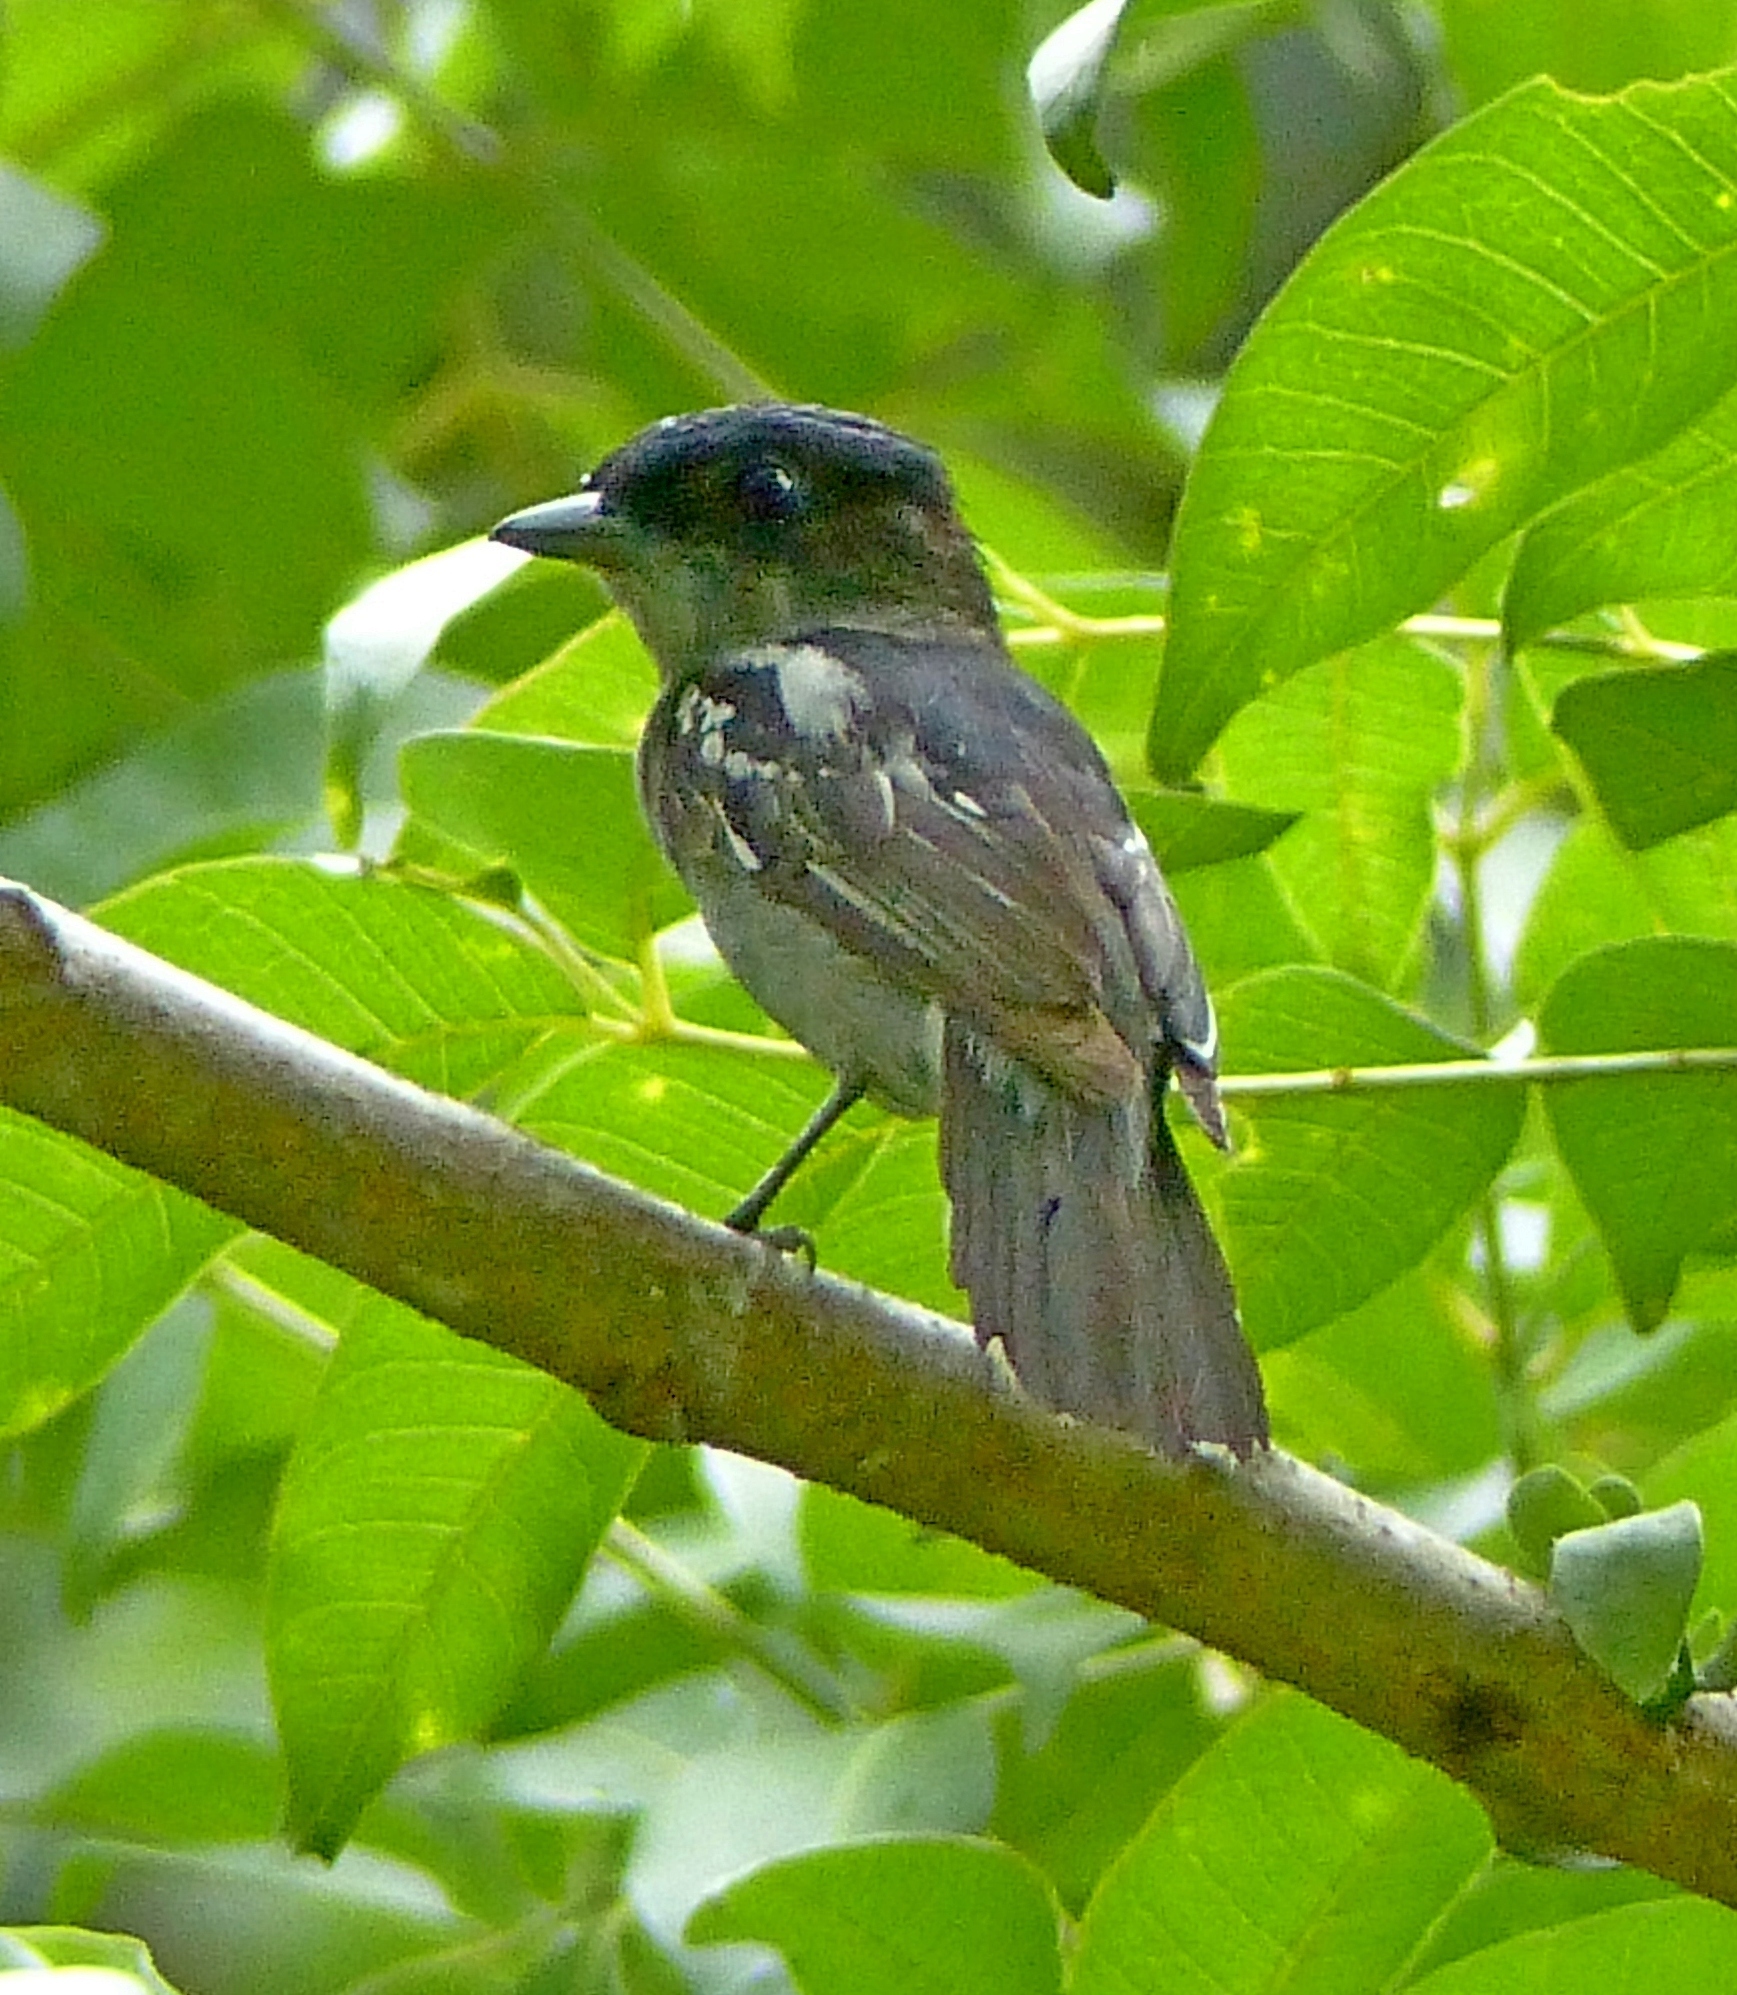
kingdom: Animalia
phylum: Chordata
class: Aves
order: Passeriformes
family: Cotingidae
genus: Pachyramphus
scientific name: Pachyramphus polychopterus
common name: White-winged becard
